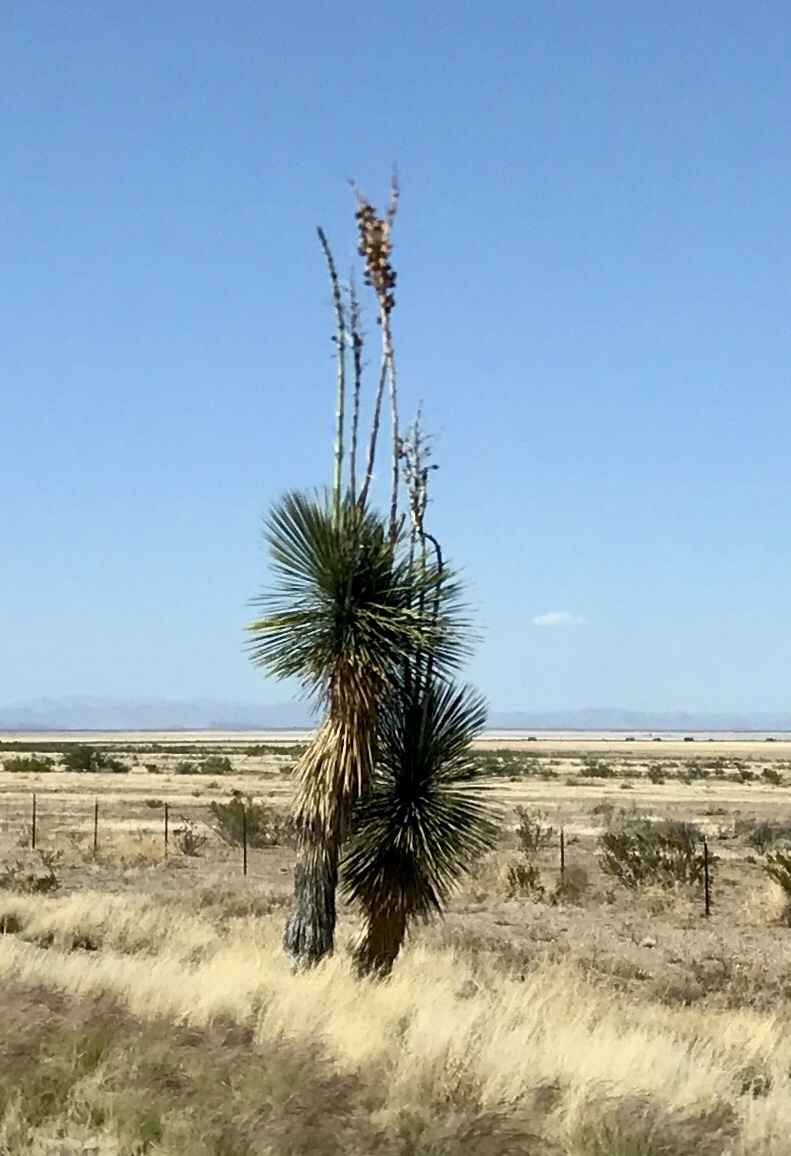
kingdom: Plantae
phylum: Tracheophyta
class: Liliopsida
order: Asparagales
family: Asparagaceae
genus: Yucca
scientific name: Yucca elata
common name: Palmella
